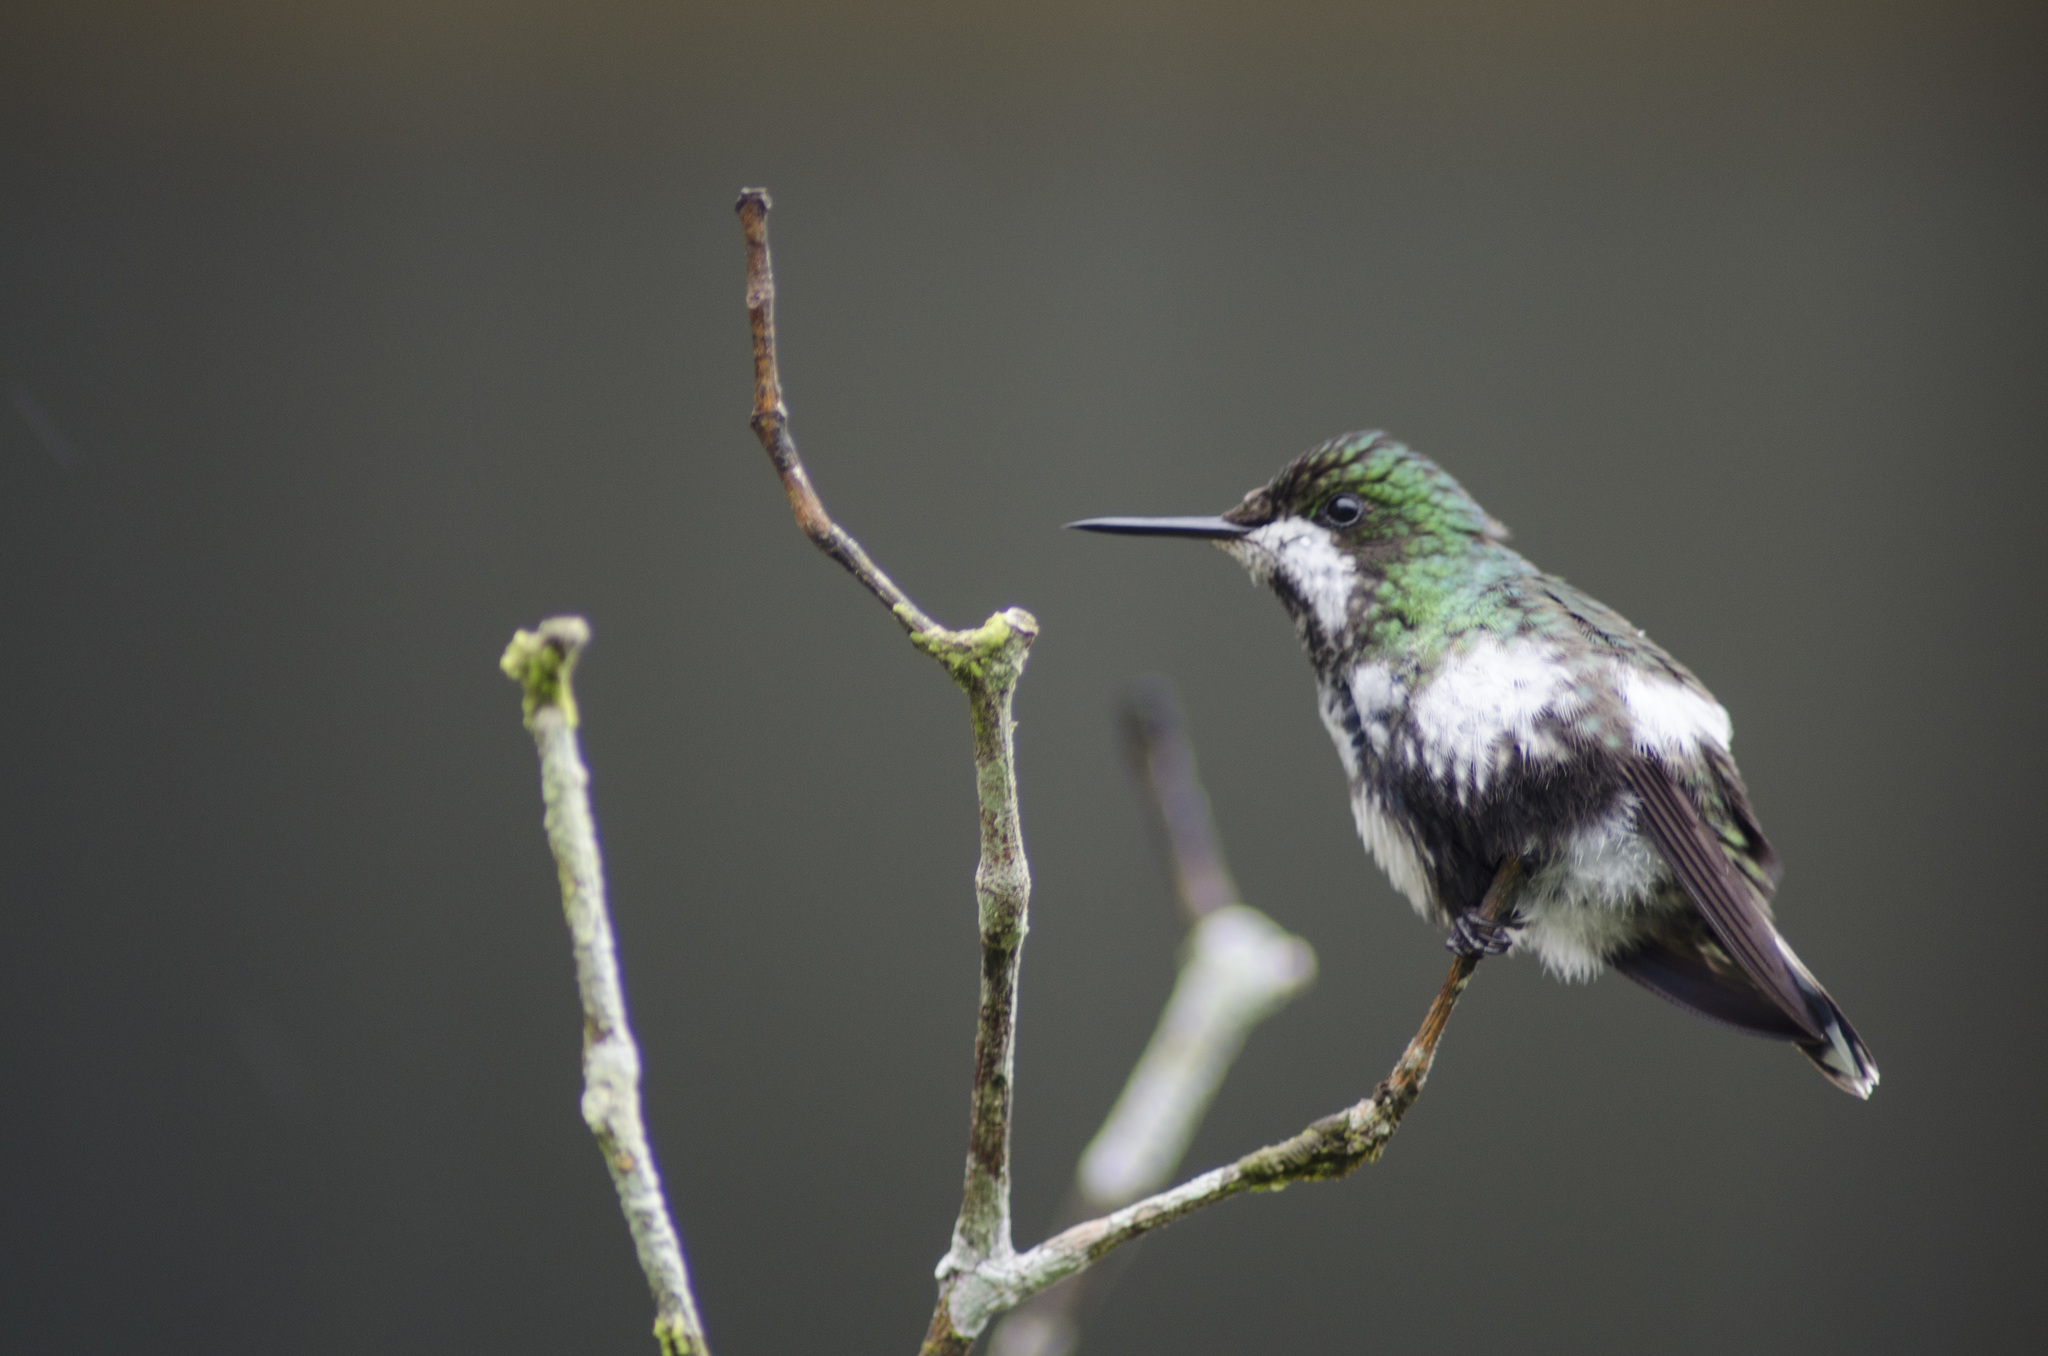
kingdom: Animalia
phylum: Chordata
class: Aves
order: Apodiformes
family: Trochilidae
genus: Discosura
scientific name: Discosura conversii
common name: Green thorntail
